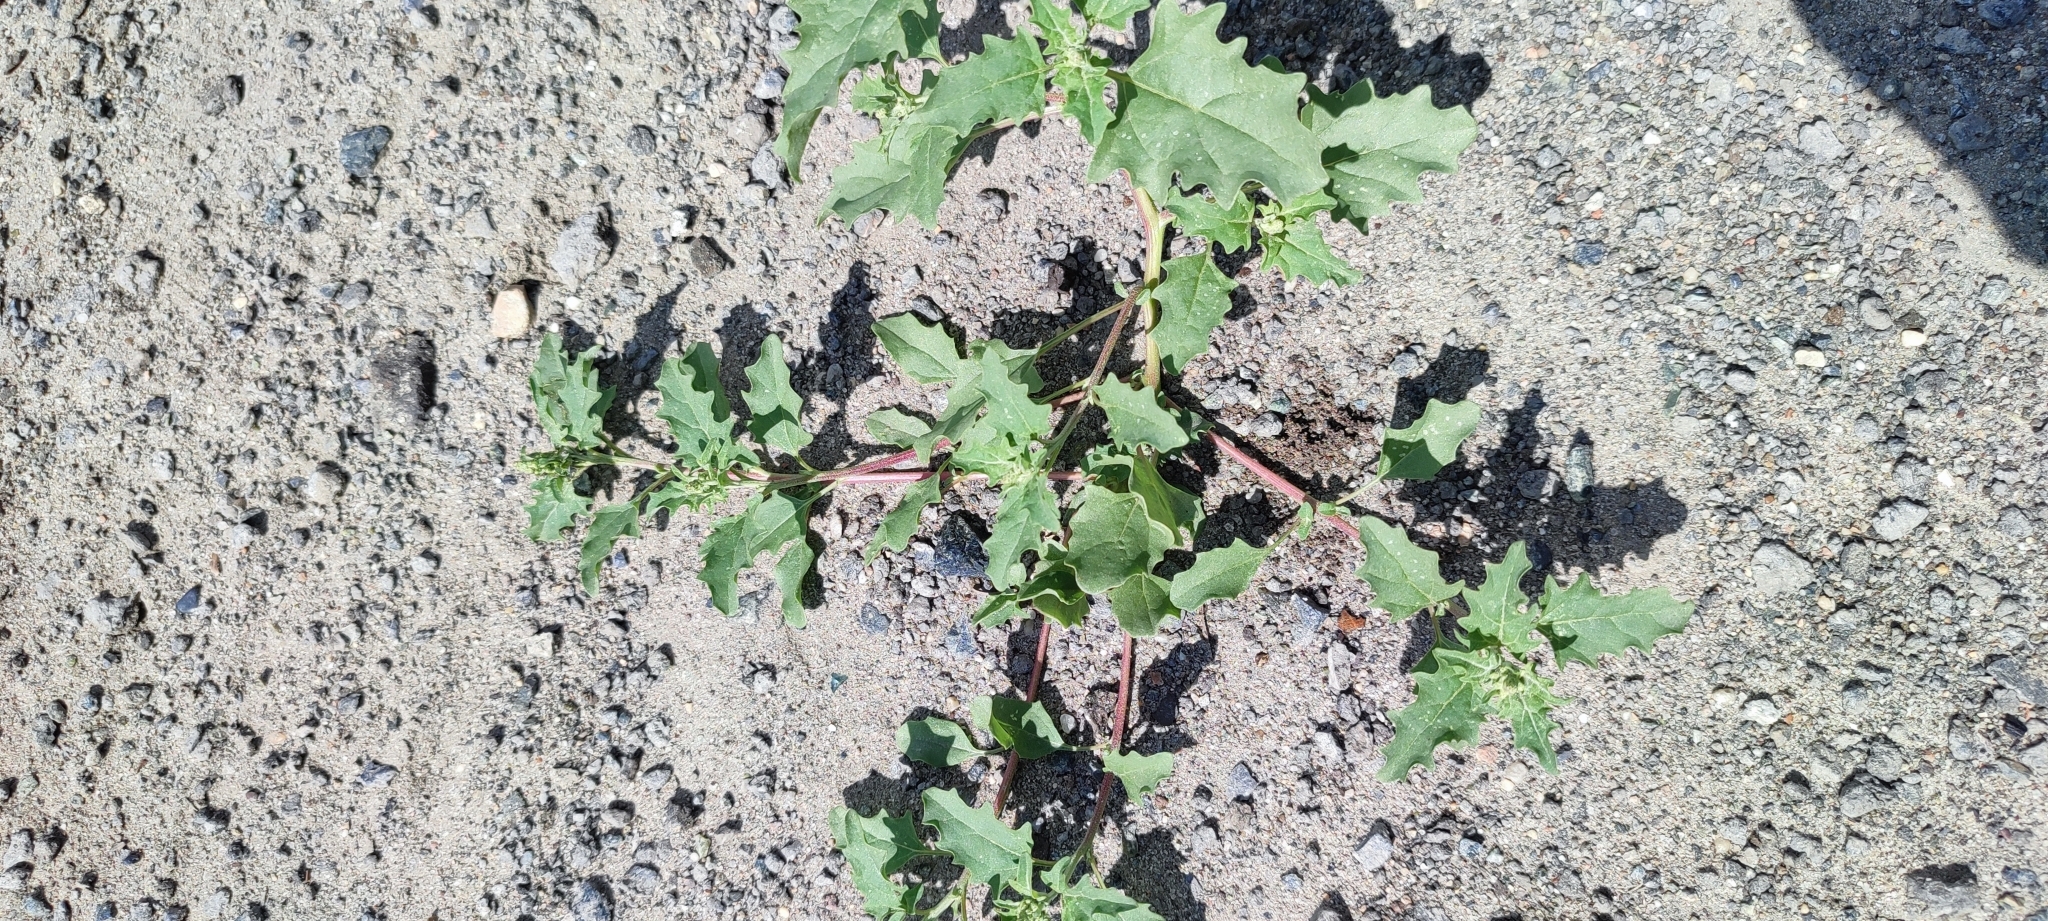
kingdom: Plantae
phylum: Tracheophyta
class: Magnoliopsida
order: Caryophyllales
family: Amaranthaceae
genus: Atriplex
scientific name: Atriplex tatarica
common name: Tatarian orache
